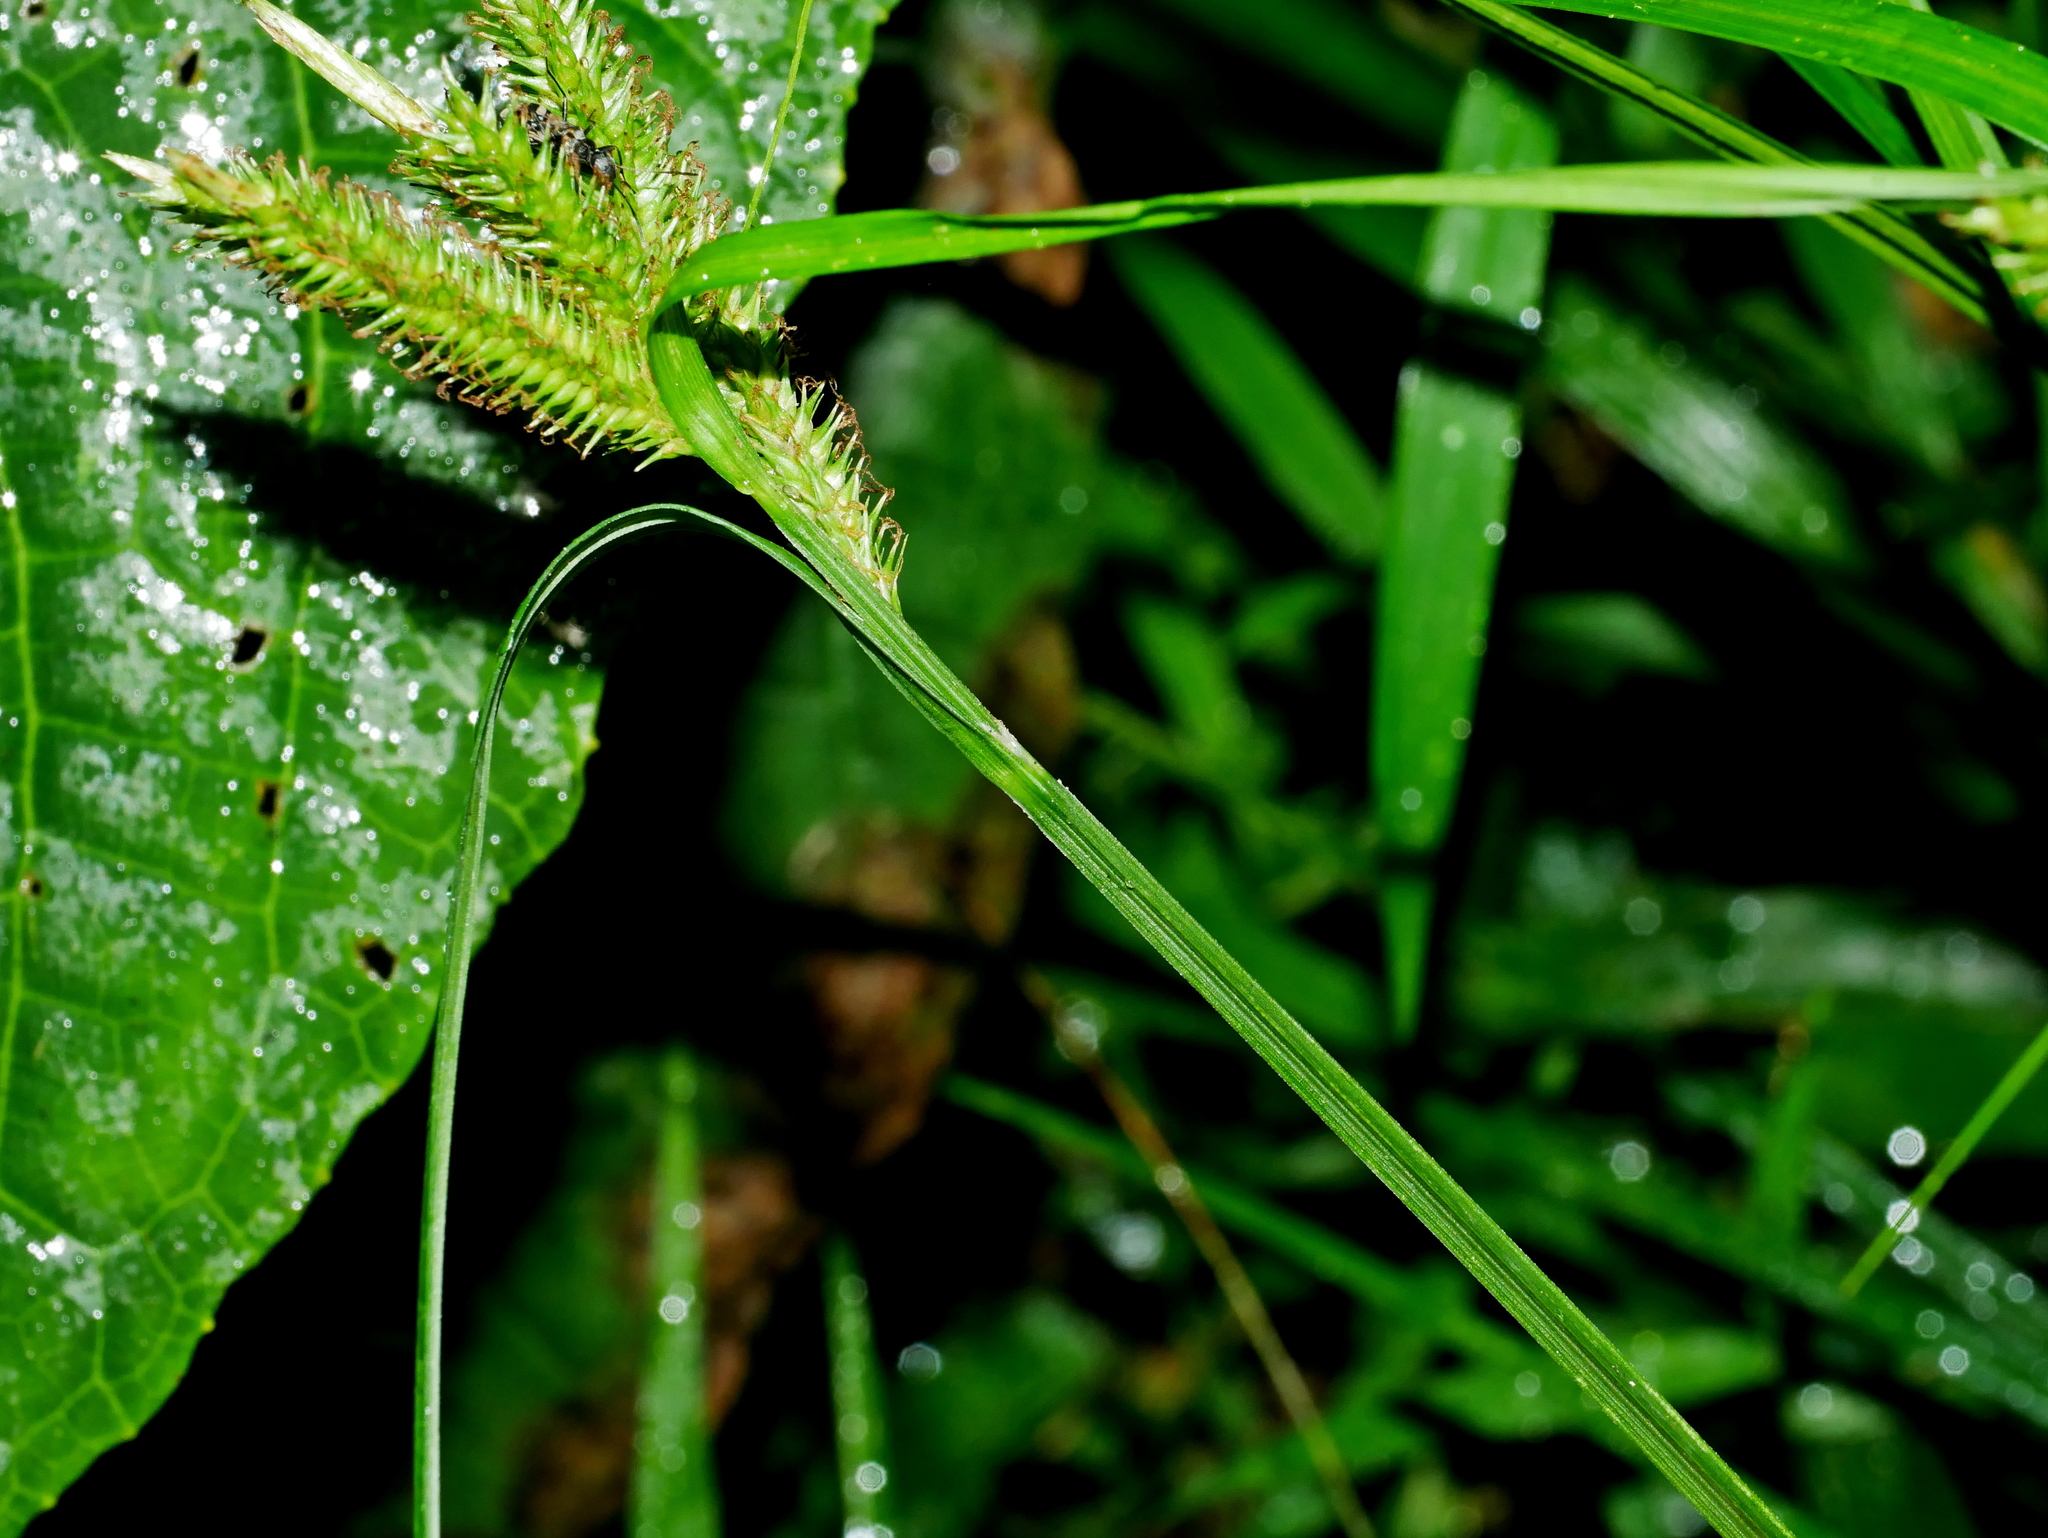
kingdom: Plantae
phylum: Tracheophyta
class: Liliopsida
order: Poales
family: Cyperaceae
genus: Carex
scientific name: Carex alopecuroides
